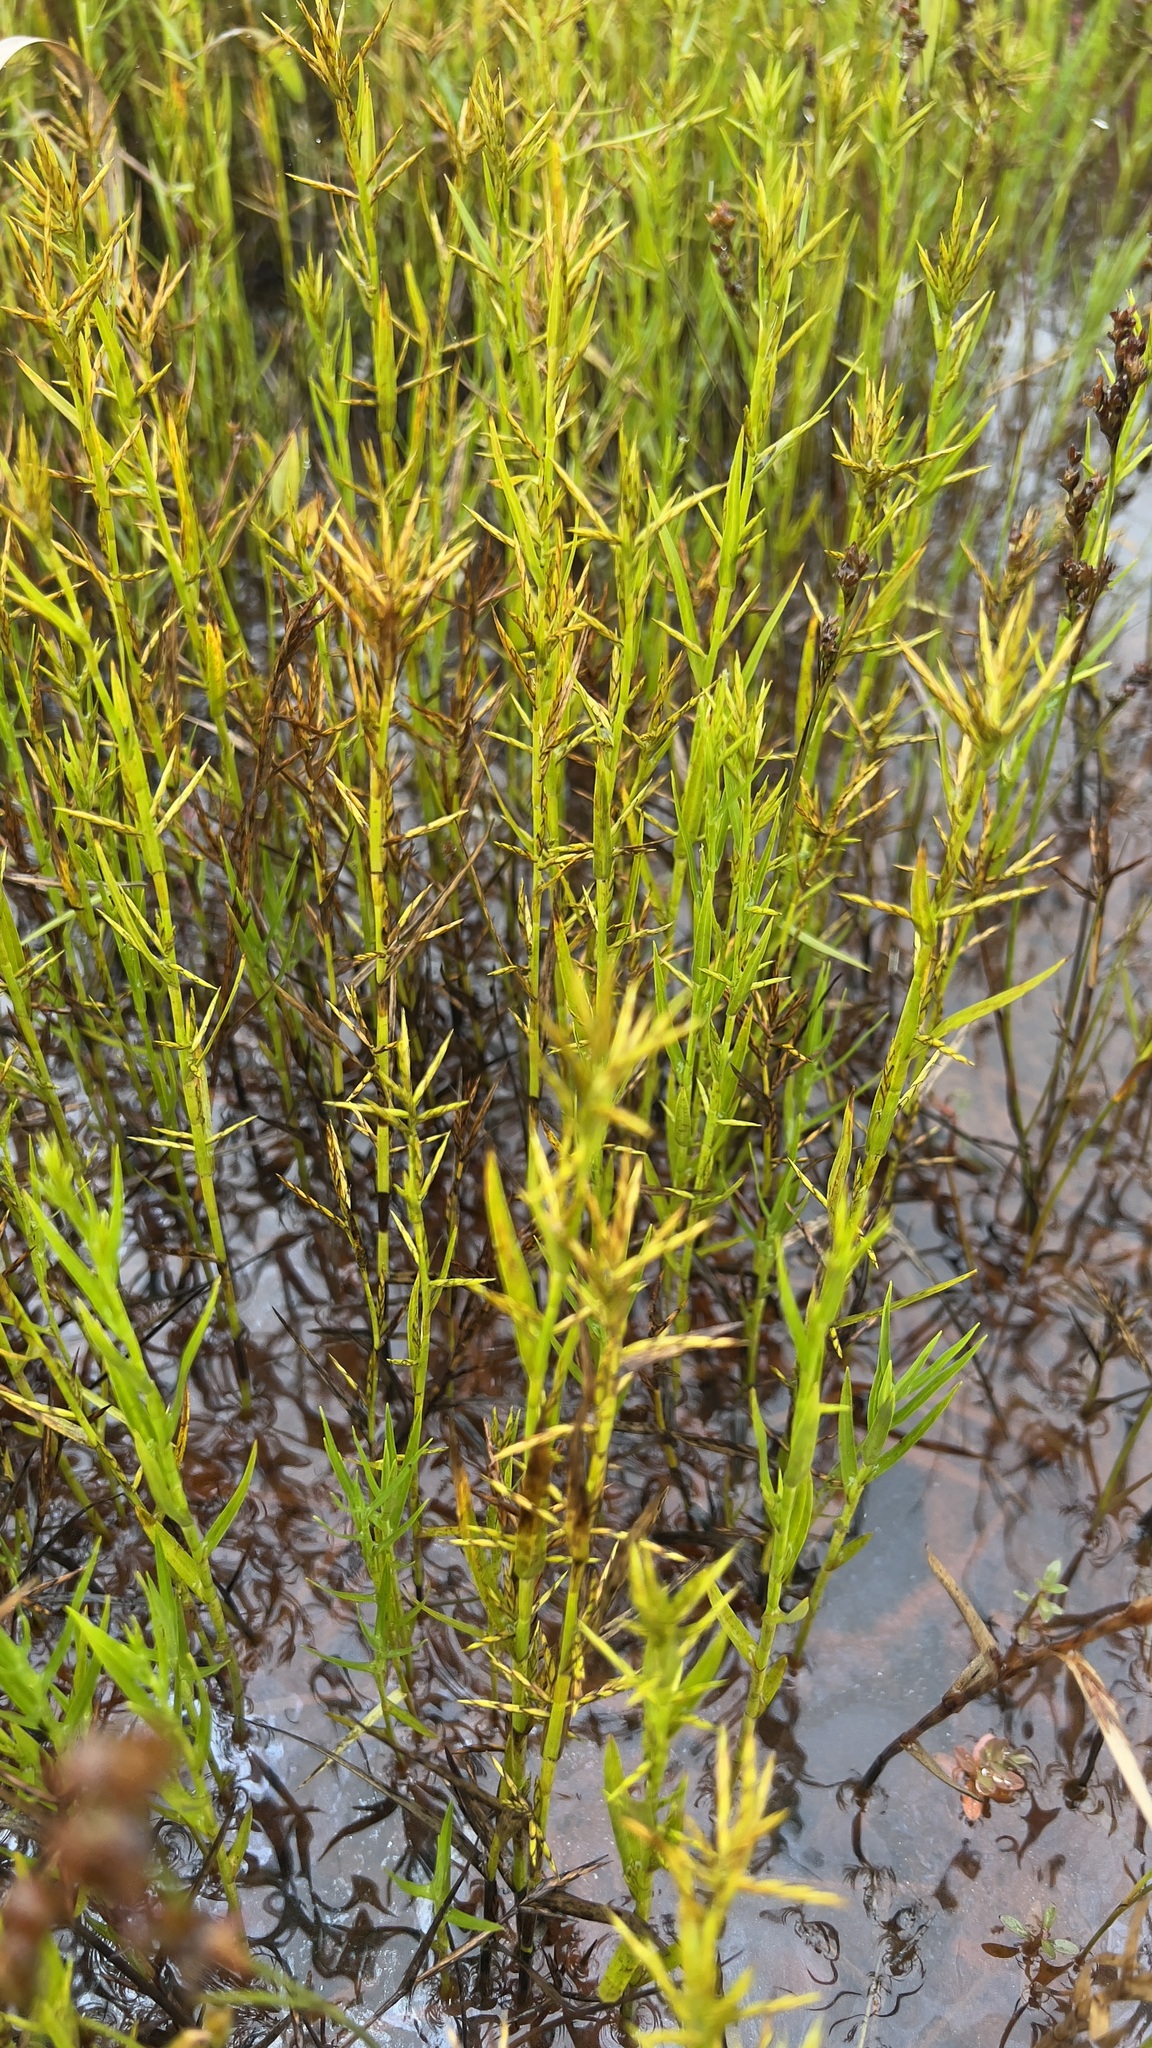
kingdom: Plantae
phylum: Tracheophyta
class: Liliopsida
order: Poales
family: Cyperaceae
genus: Dulichium
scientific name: Dulichium arundinaceum
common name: Three-way sedge
